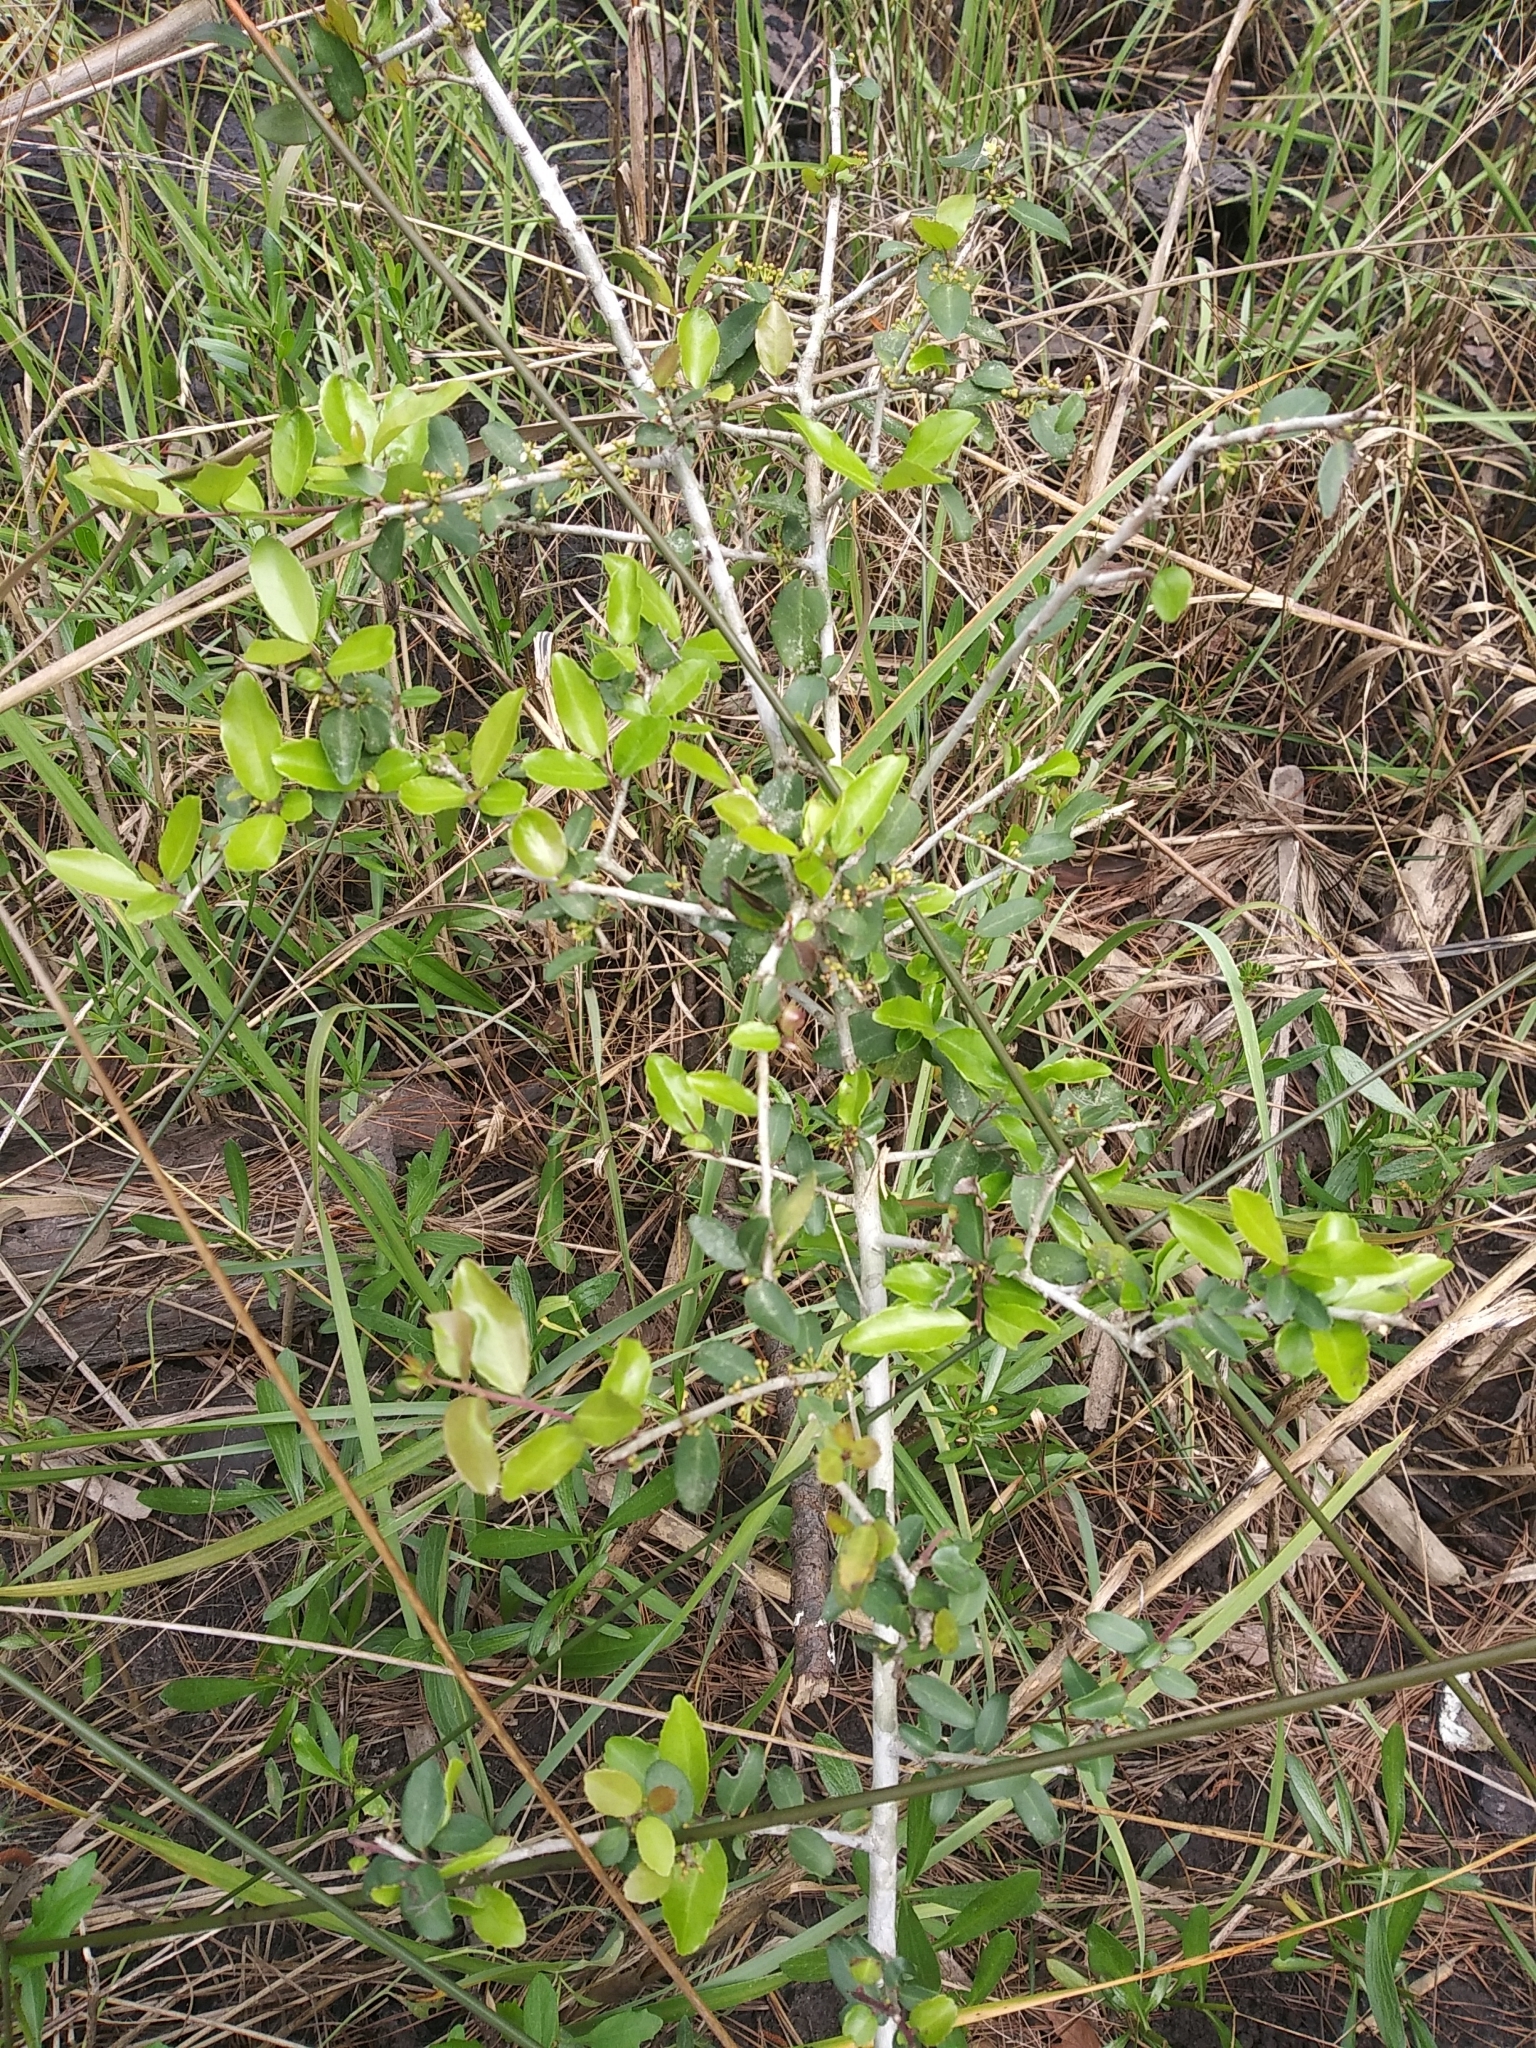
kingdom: Plantae
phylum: Tracheophyta
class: Magnoliopsida
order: Aquifoliales
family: Aquifoliaceae
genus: Ilex
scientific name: Ilex vomitoria
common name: Yaupon holly
